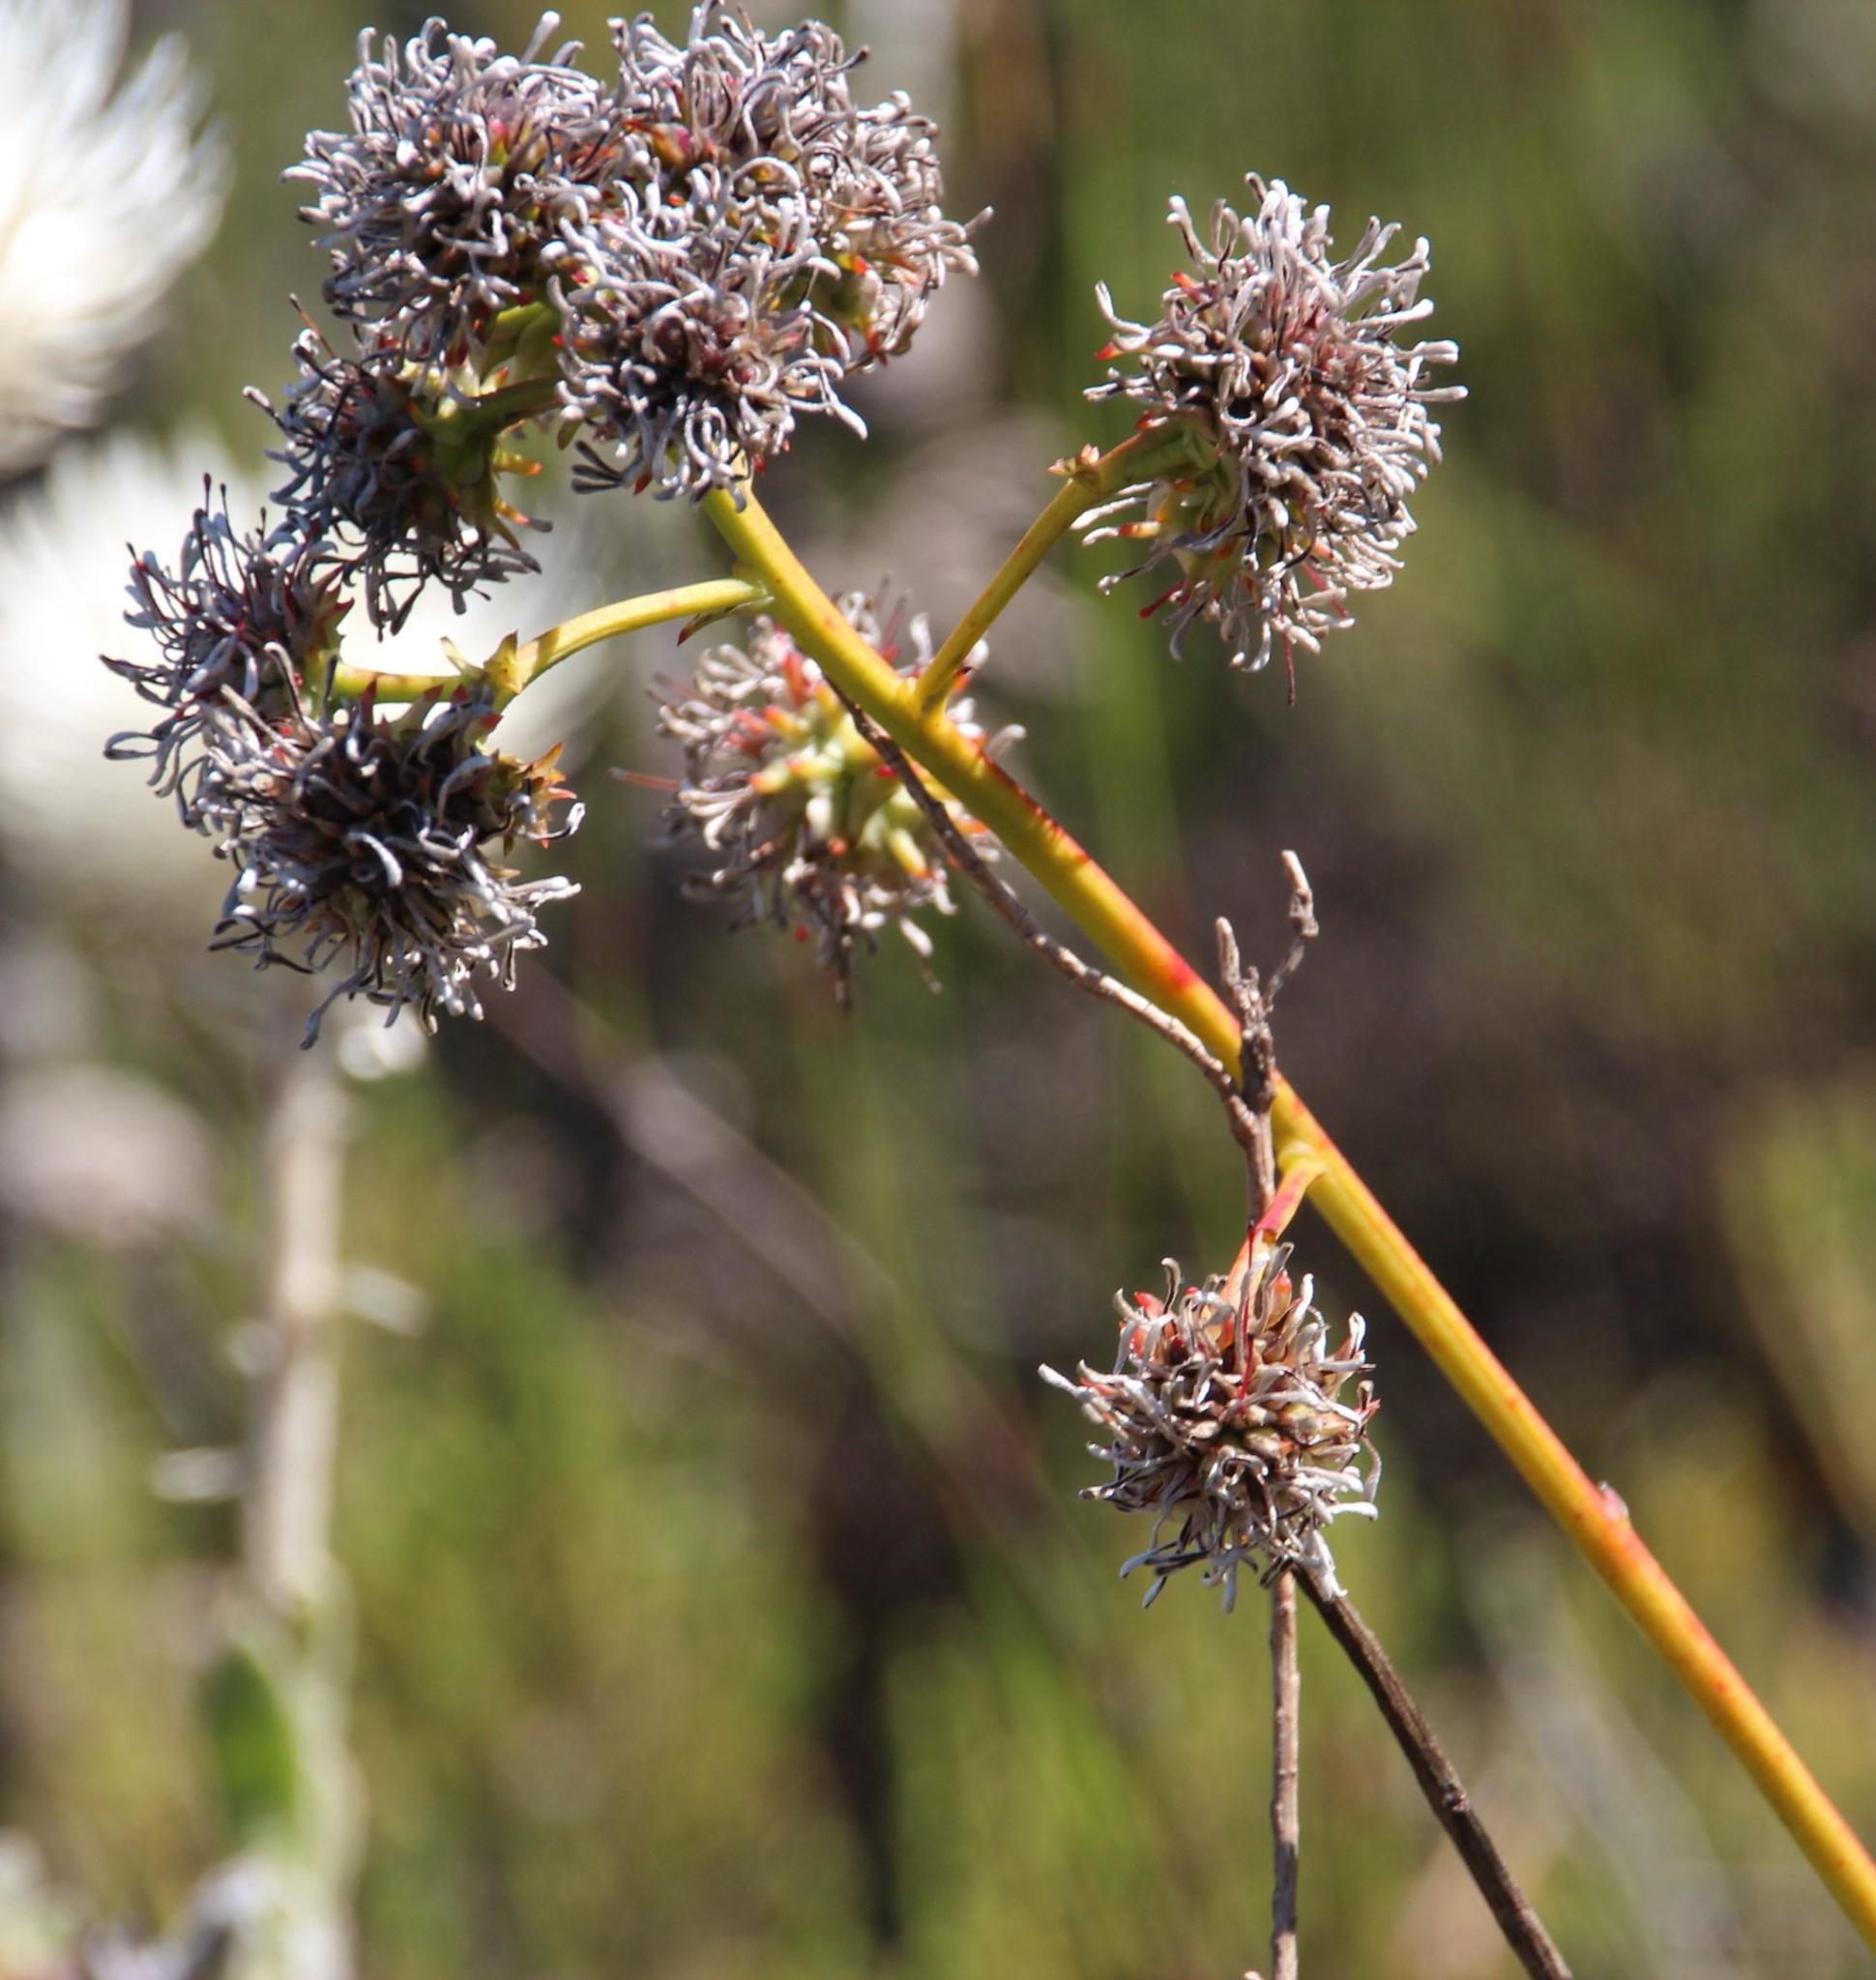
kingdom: Plantae
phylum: Tracheophyta
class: Magnoliopsida
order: Proteales
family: Proteaceae
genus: Serruria
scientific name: Serruria elongata
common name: Long-stalk spiderhead
